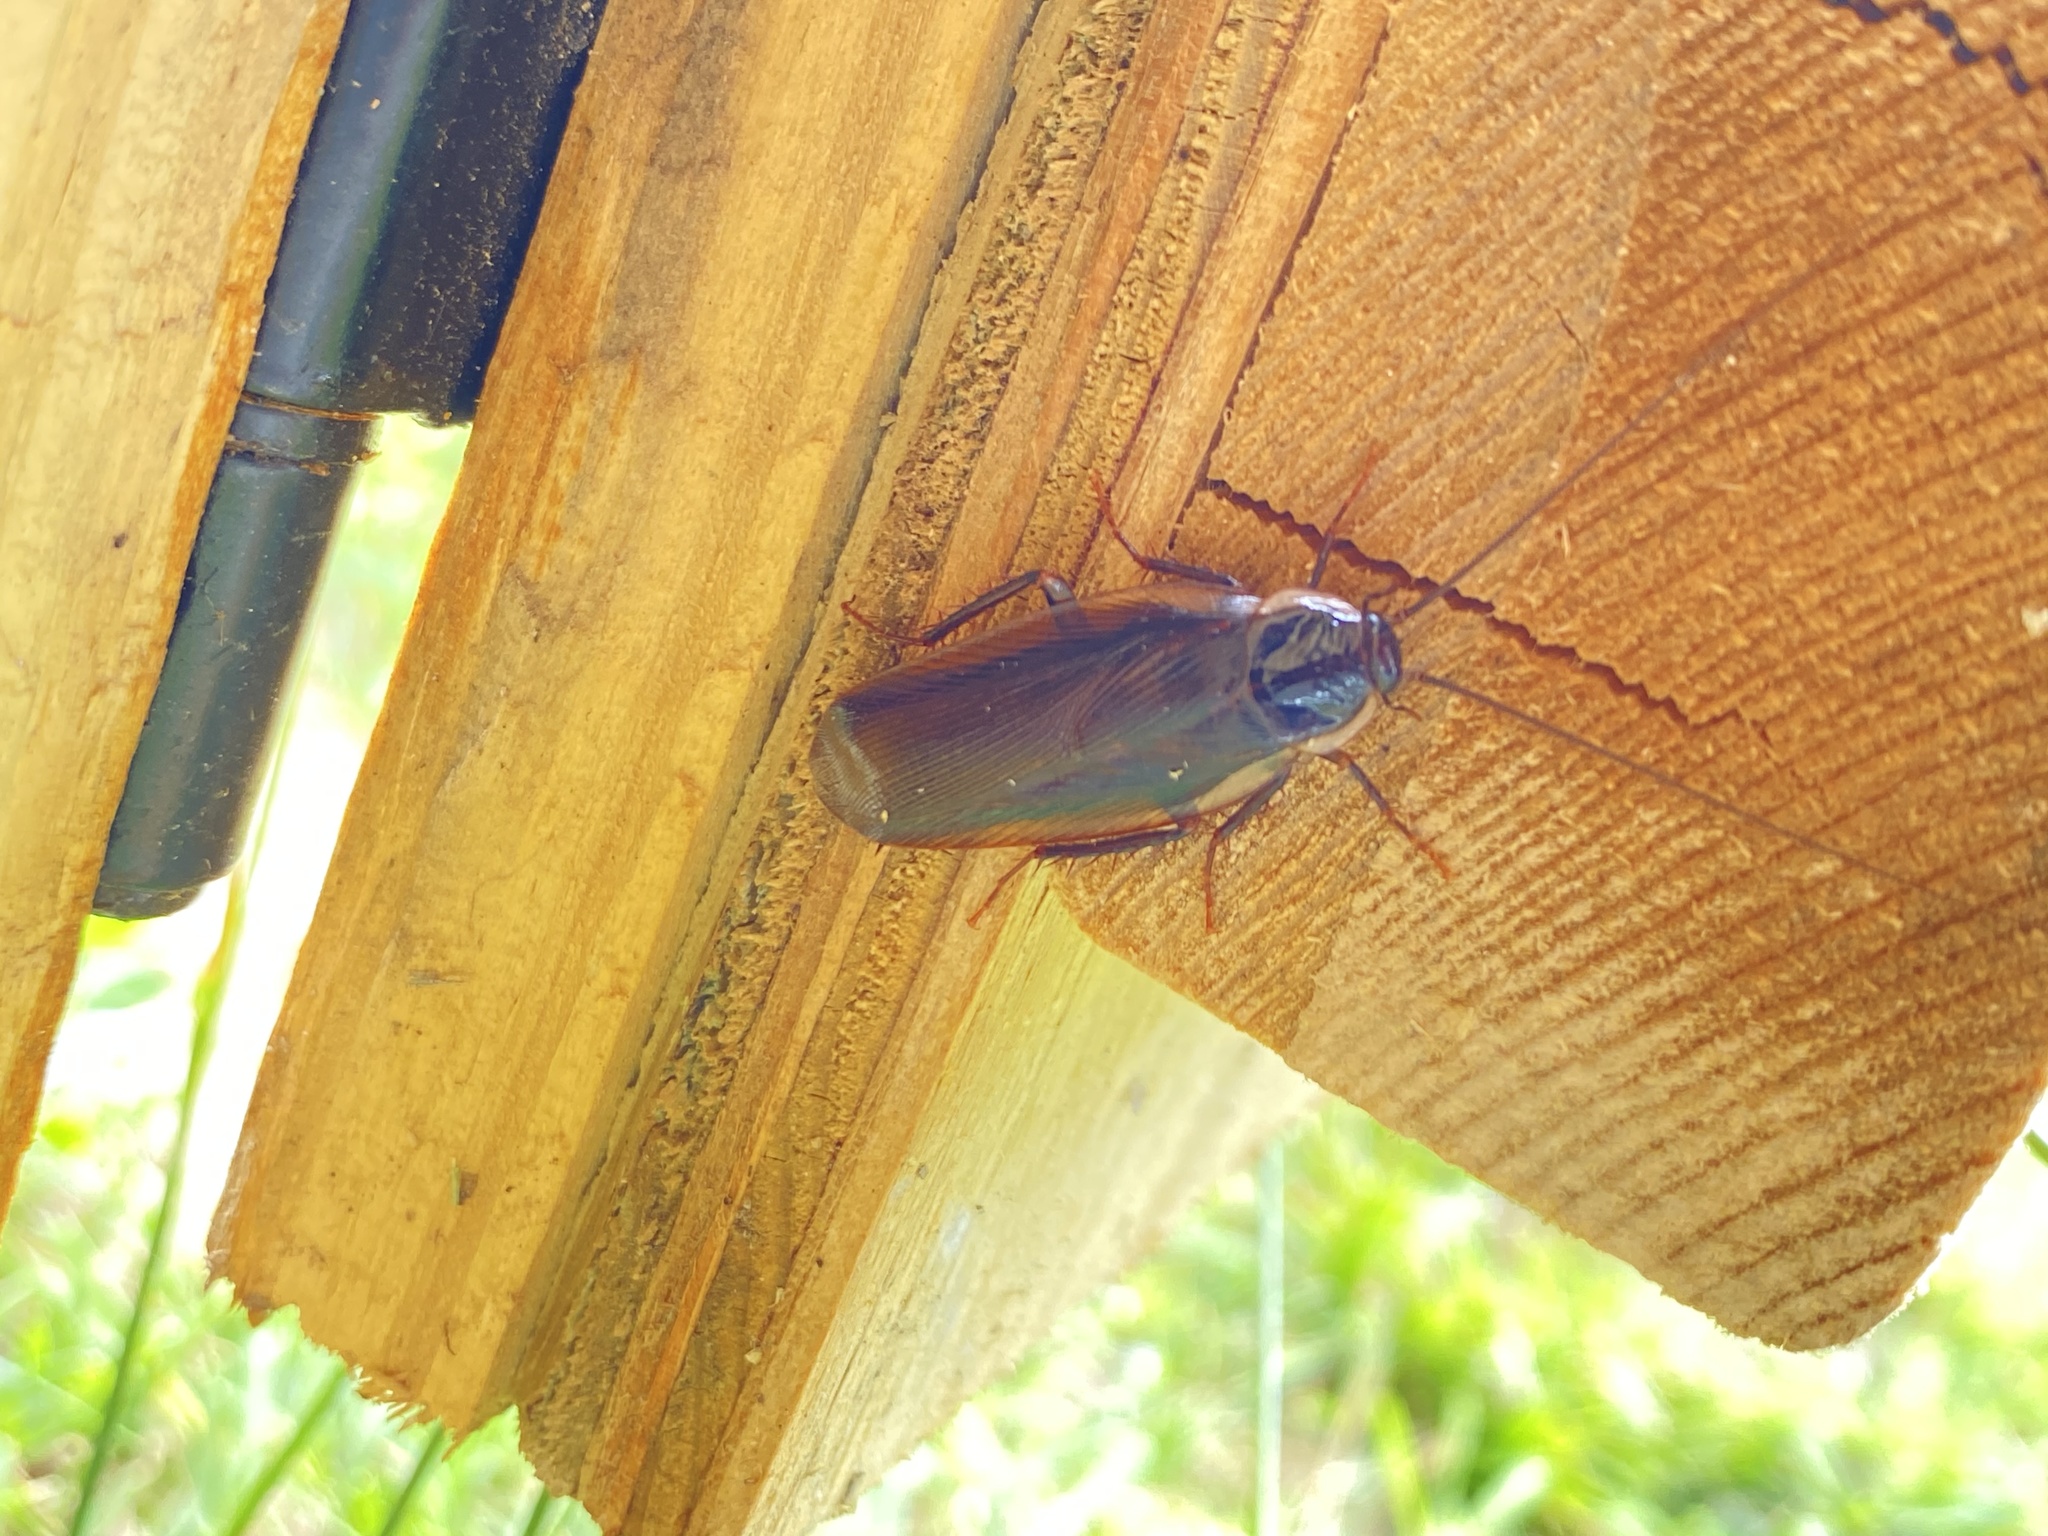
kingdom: Animalia
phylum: Arthropoda
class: Insecta
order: Blattodea
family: Ectobiidae
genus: Parcoblatta
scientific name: Parcoblatta pennsylvanica
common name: Pennsylvanian wood cockroach
